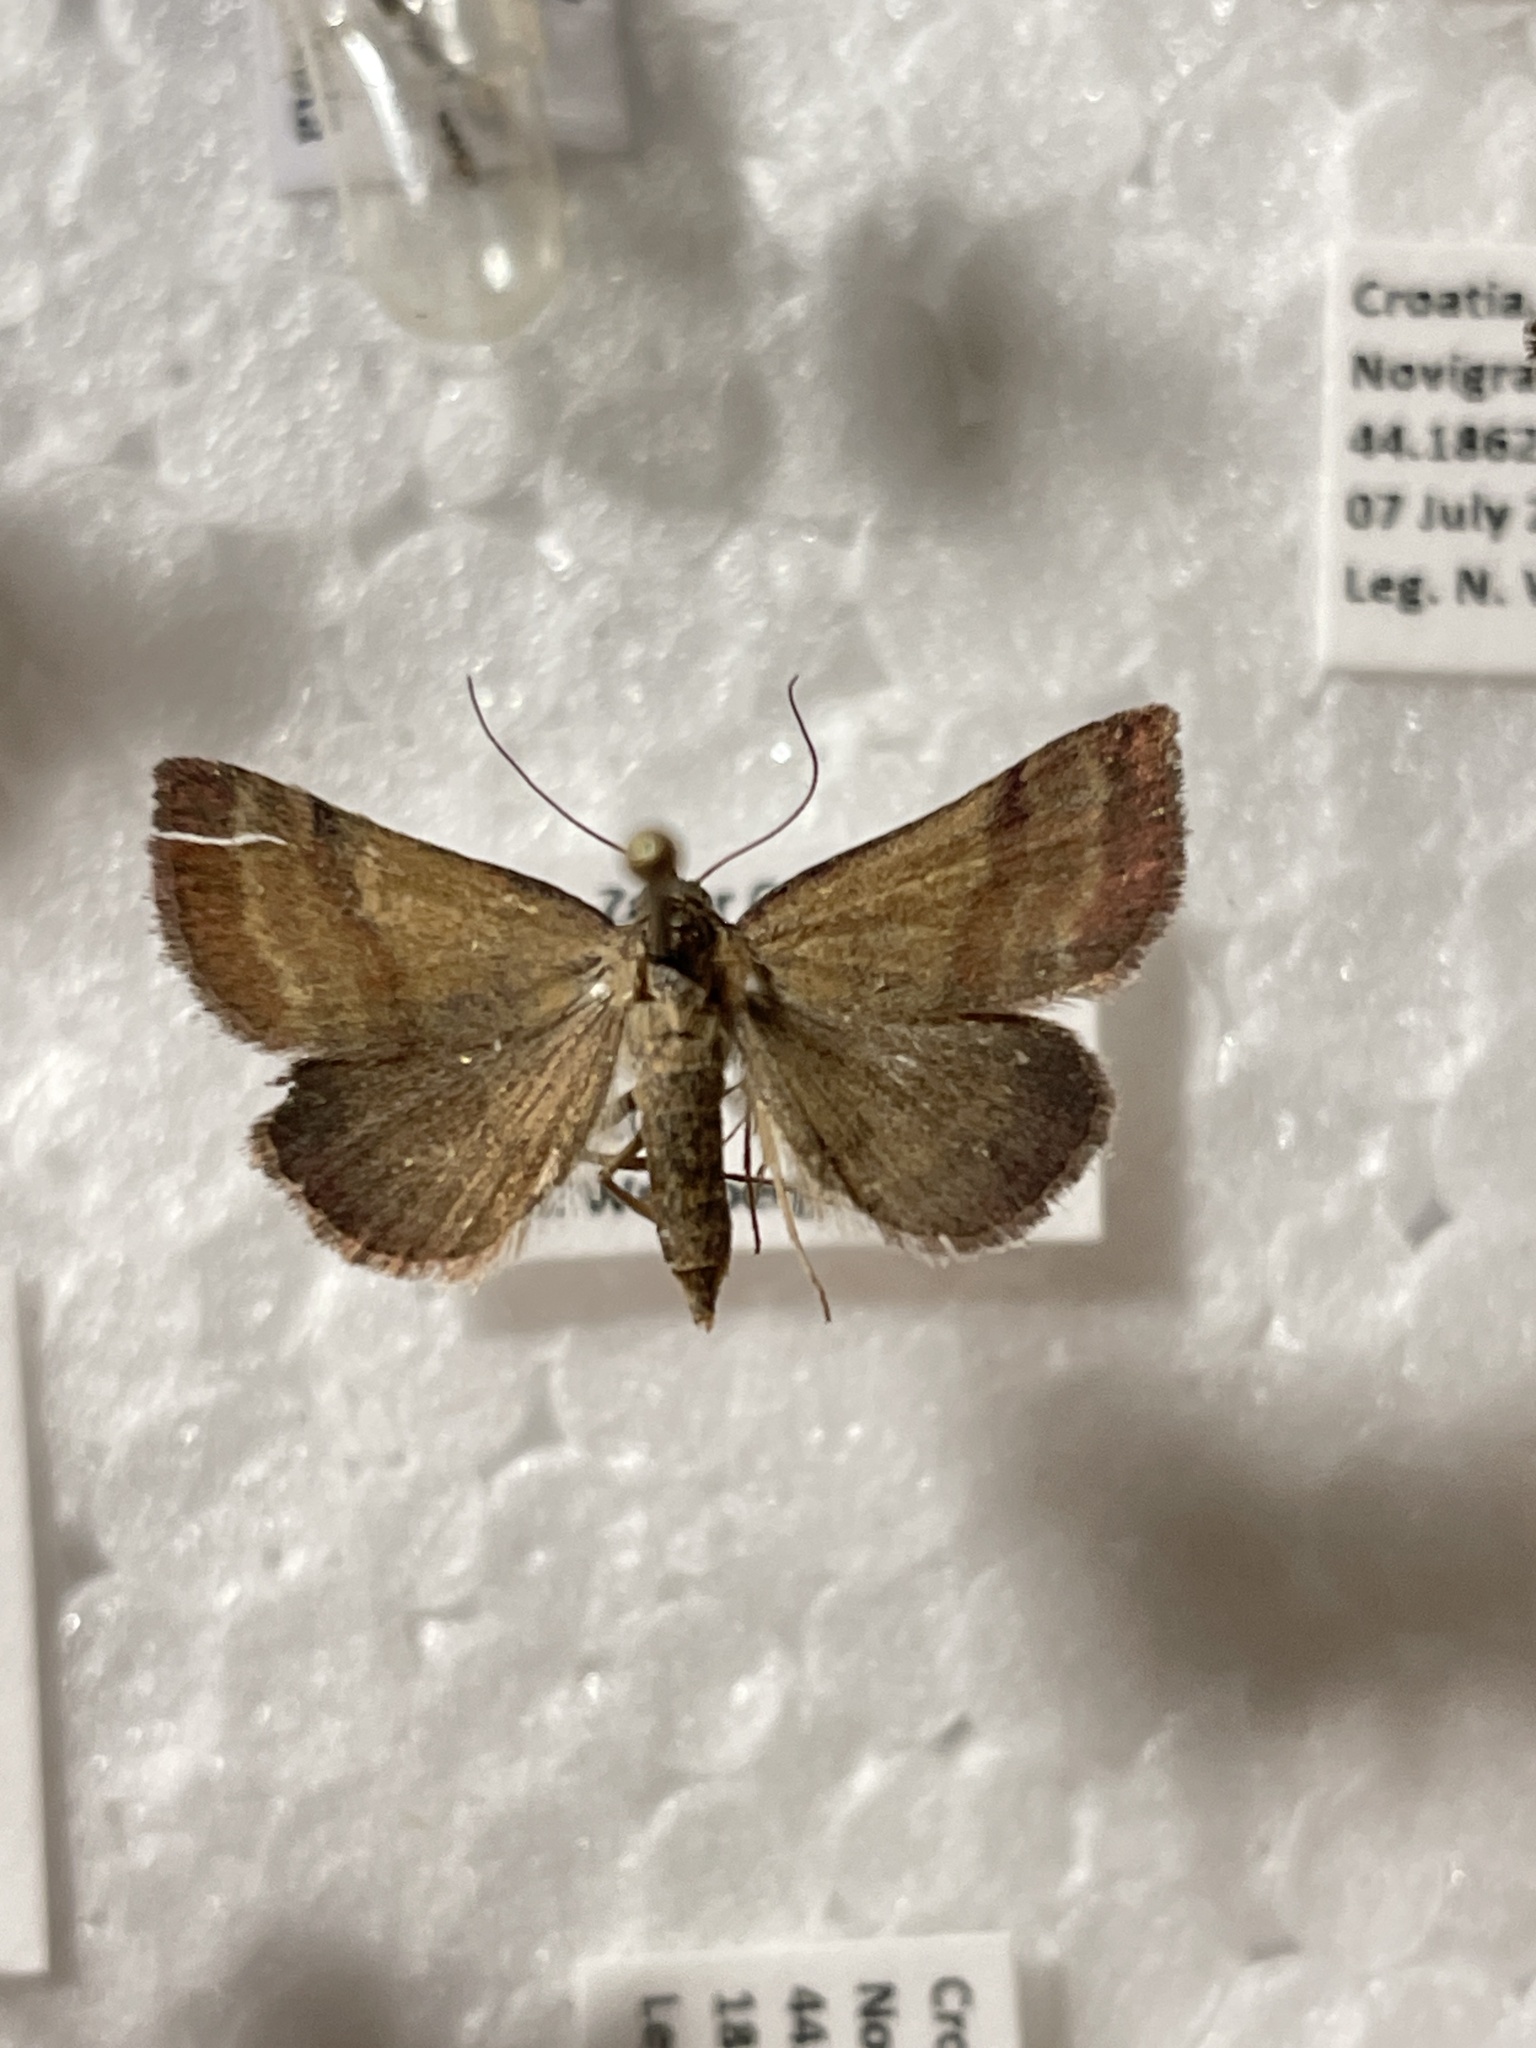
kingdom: Animalia
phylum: Arthropoda
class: Insecta
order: Lepidoptera
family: Erebidae
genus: Phytometra
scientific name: Phytometra viridaria
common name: Small purple-barred
